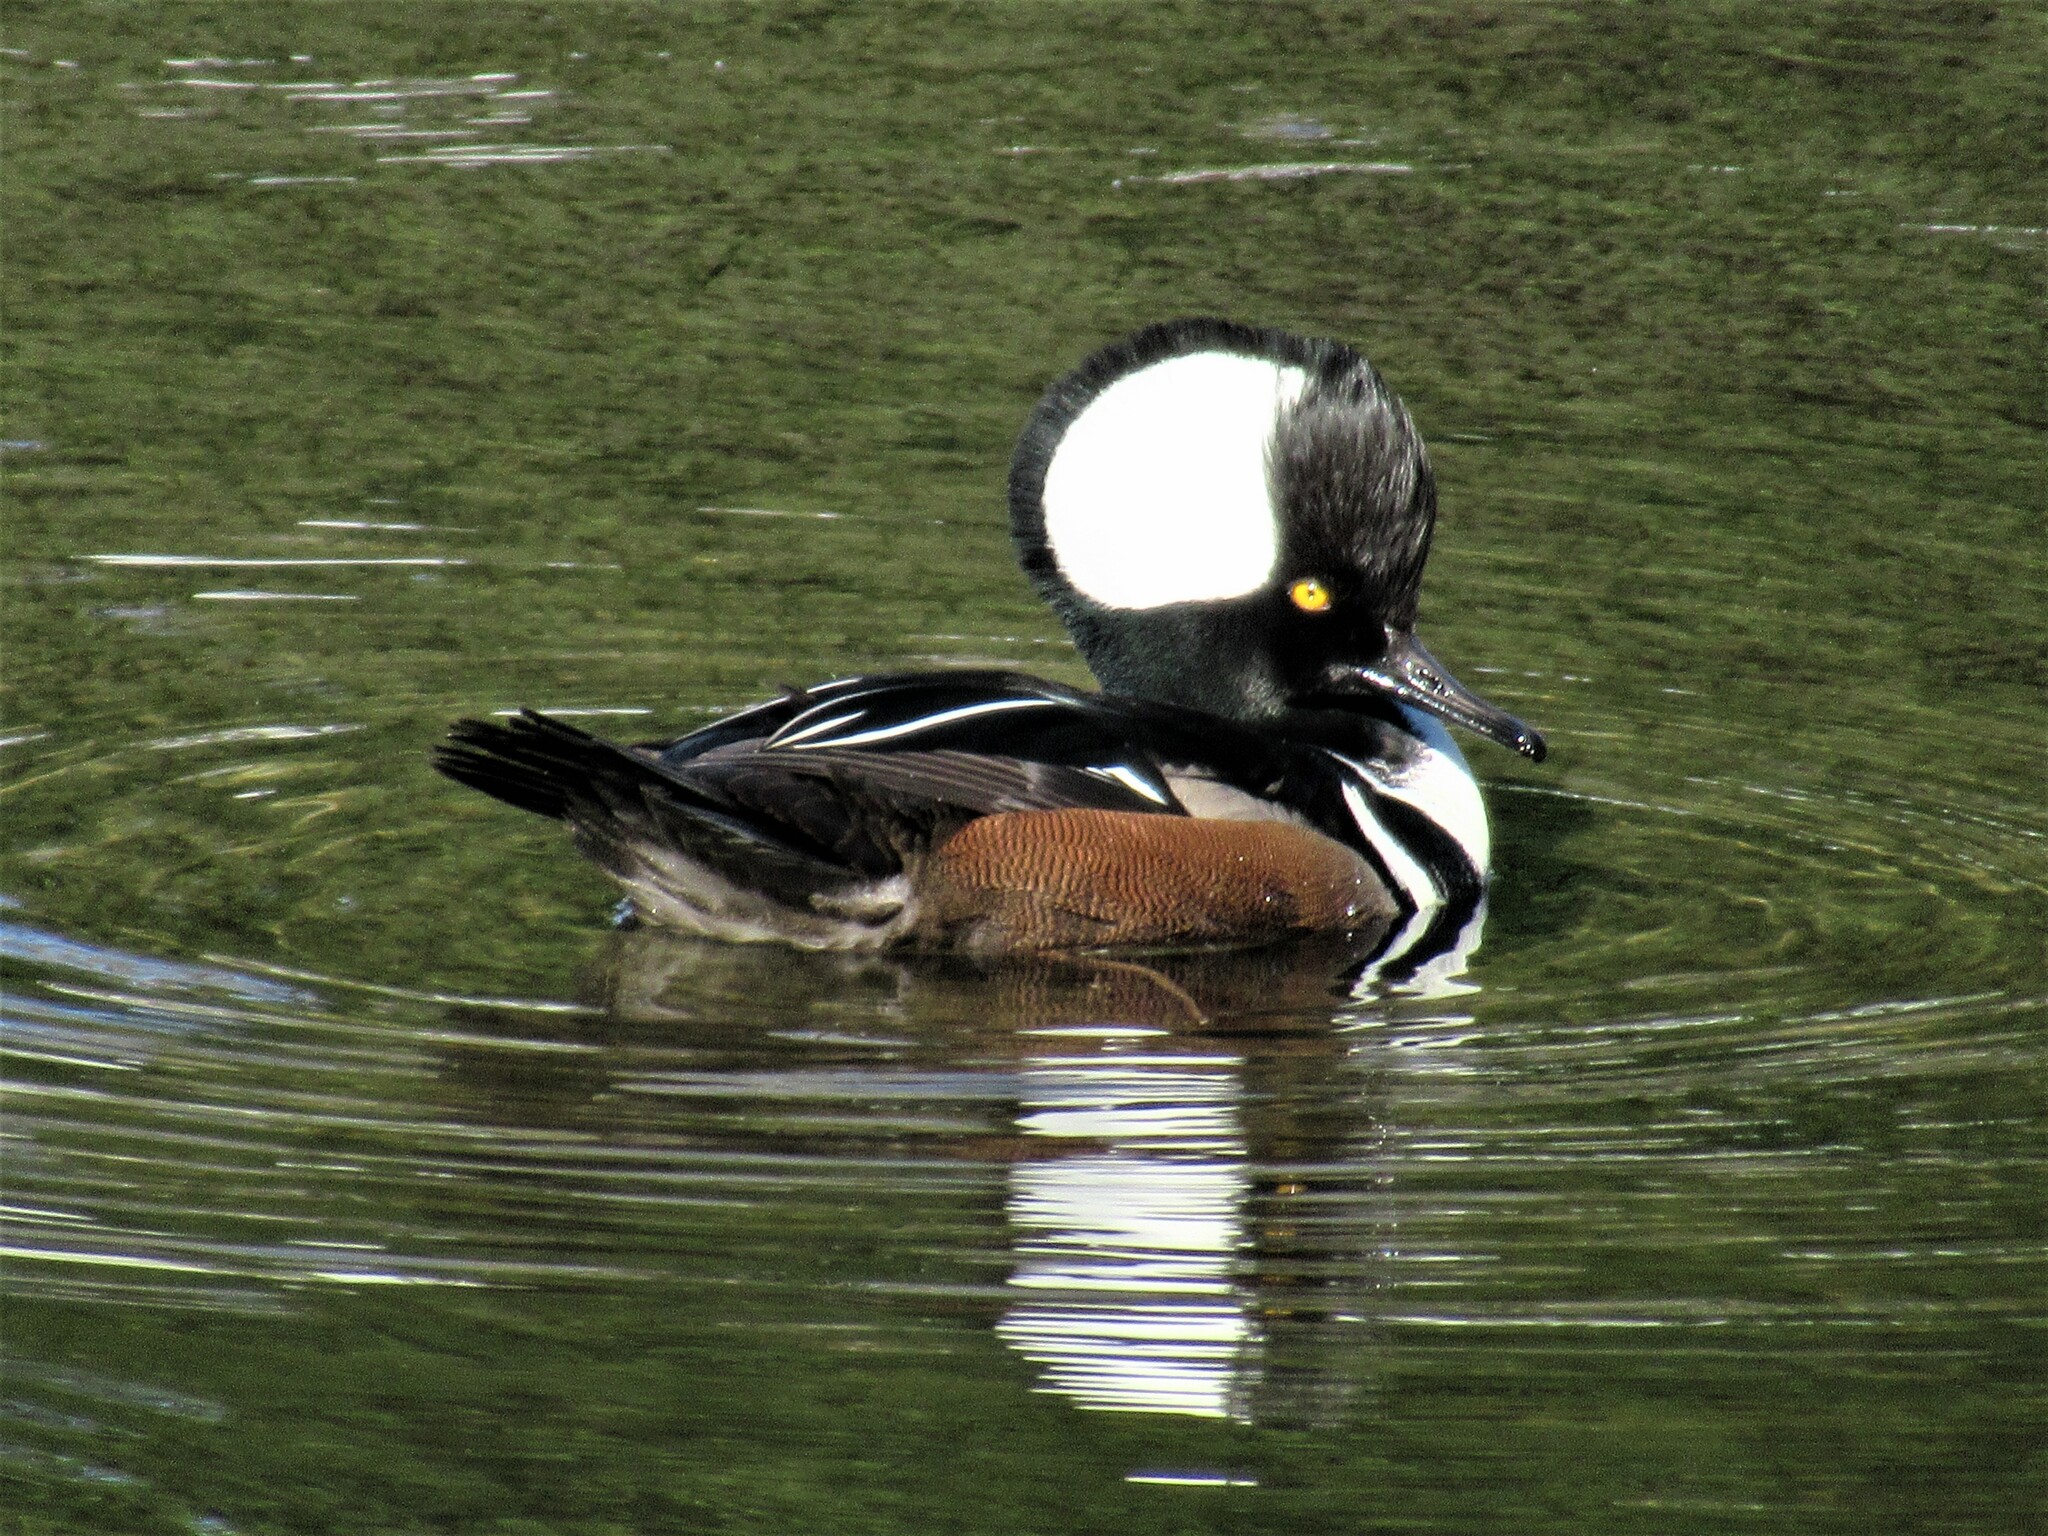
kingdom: Animalia
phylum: Chordata
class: Aves
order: Anseriformes
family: Anatidae
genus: Lophodytes
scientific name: Lophodytes cucullatus
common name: Hooded merganser
